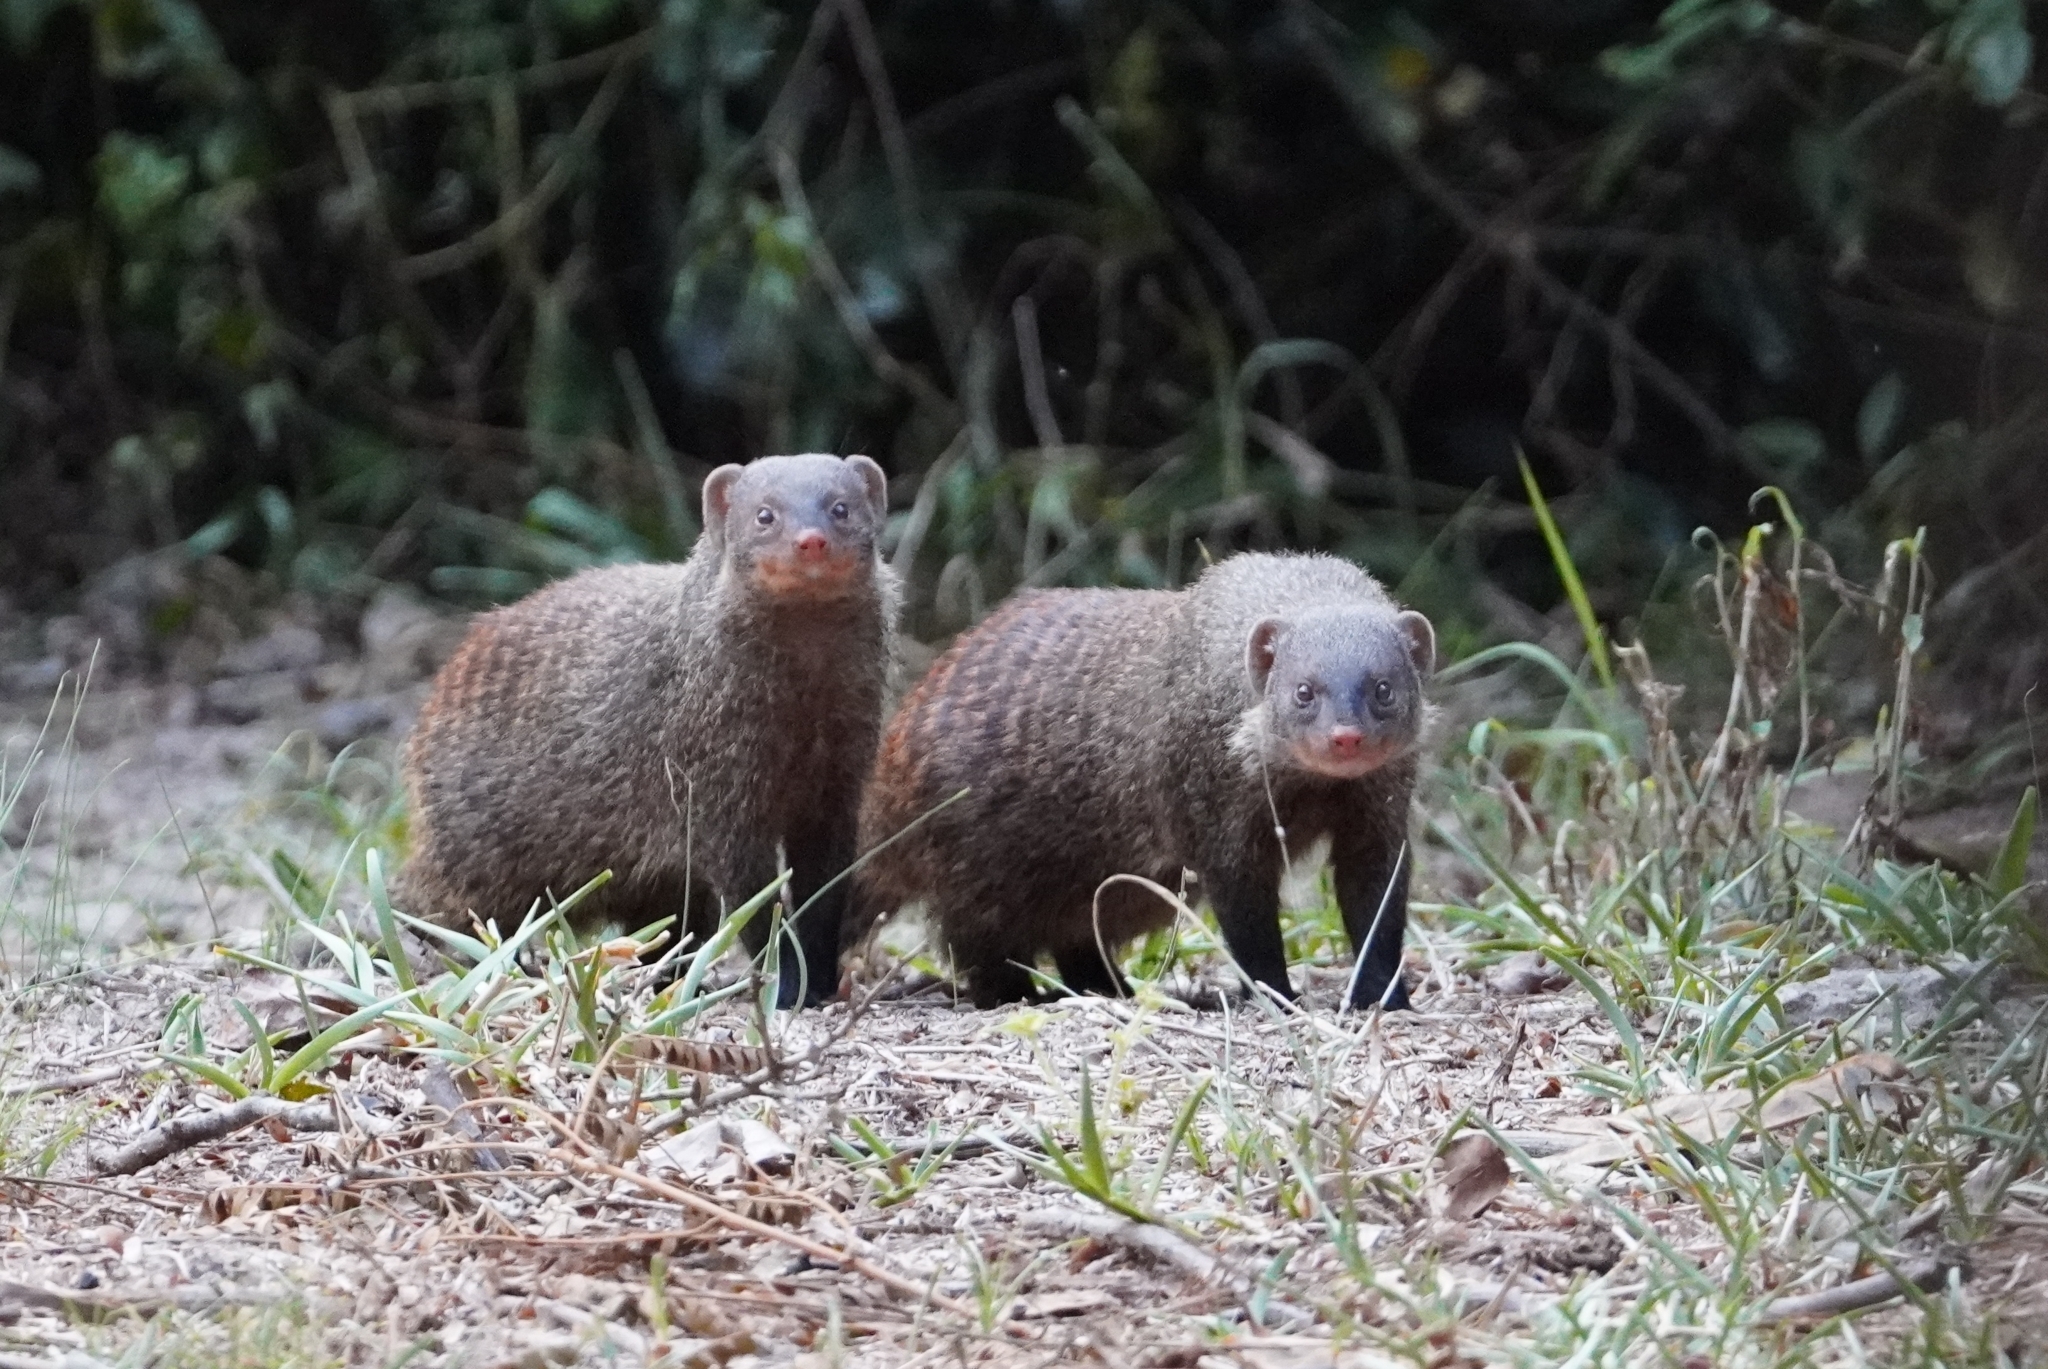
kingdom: Animalia
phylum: Chordata
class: Mammalia
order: Carnivora
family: Herpestidae
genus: Mungos
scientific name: Mungos mungo
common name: Banded mongoose
